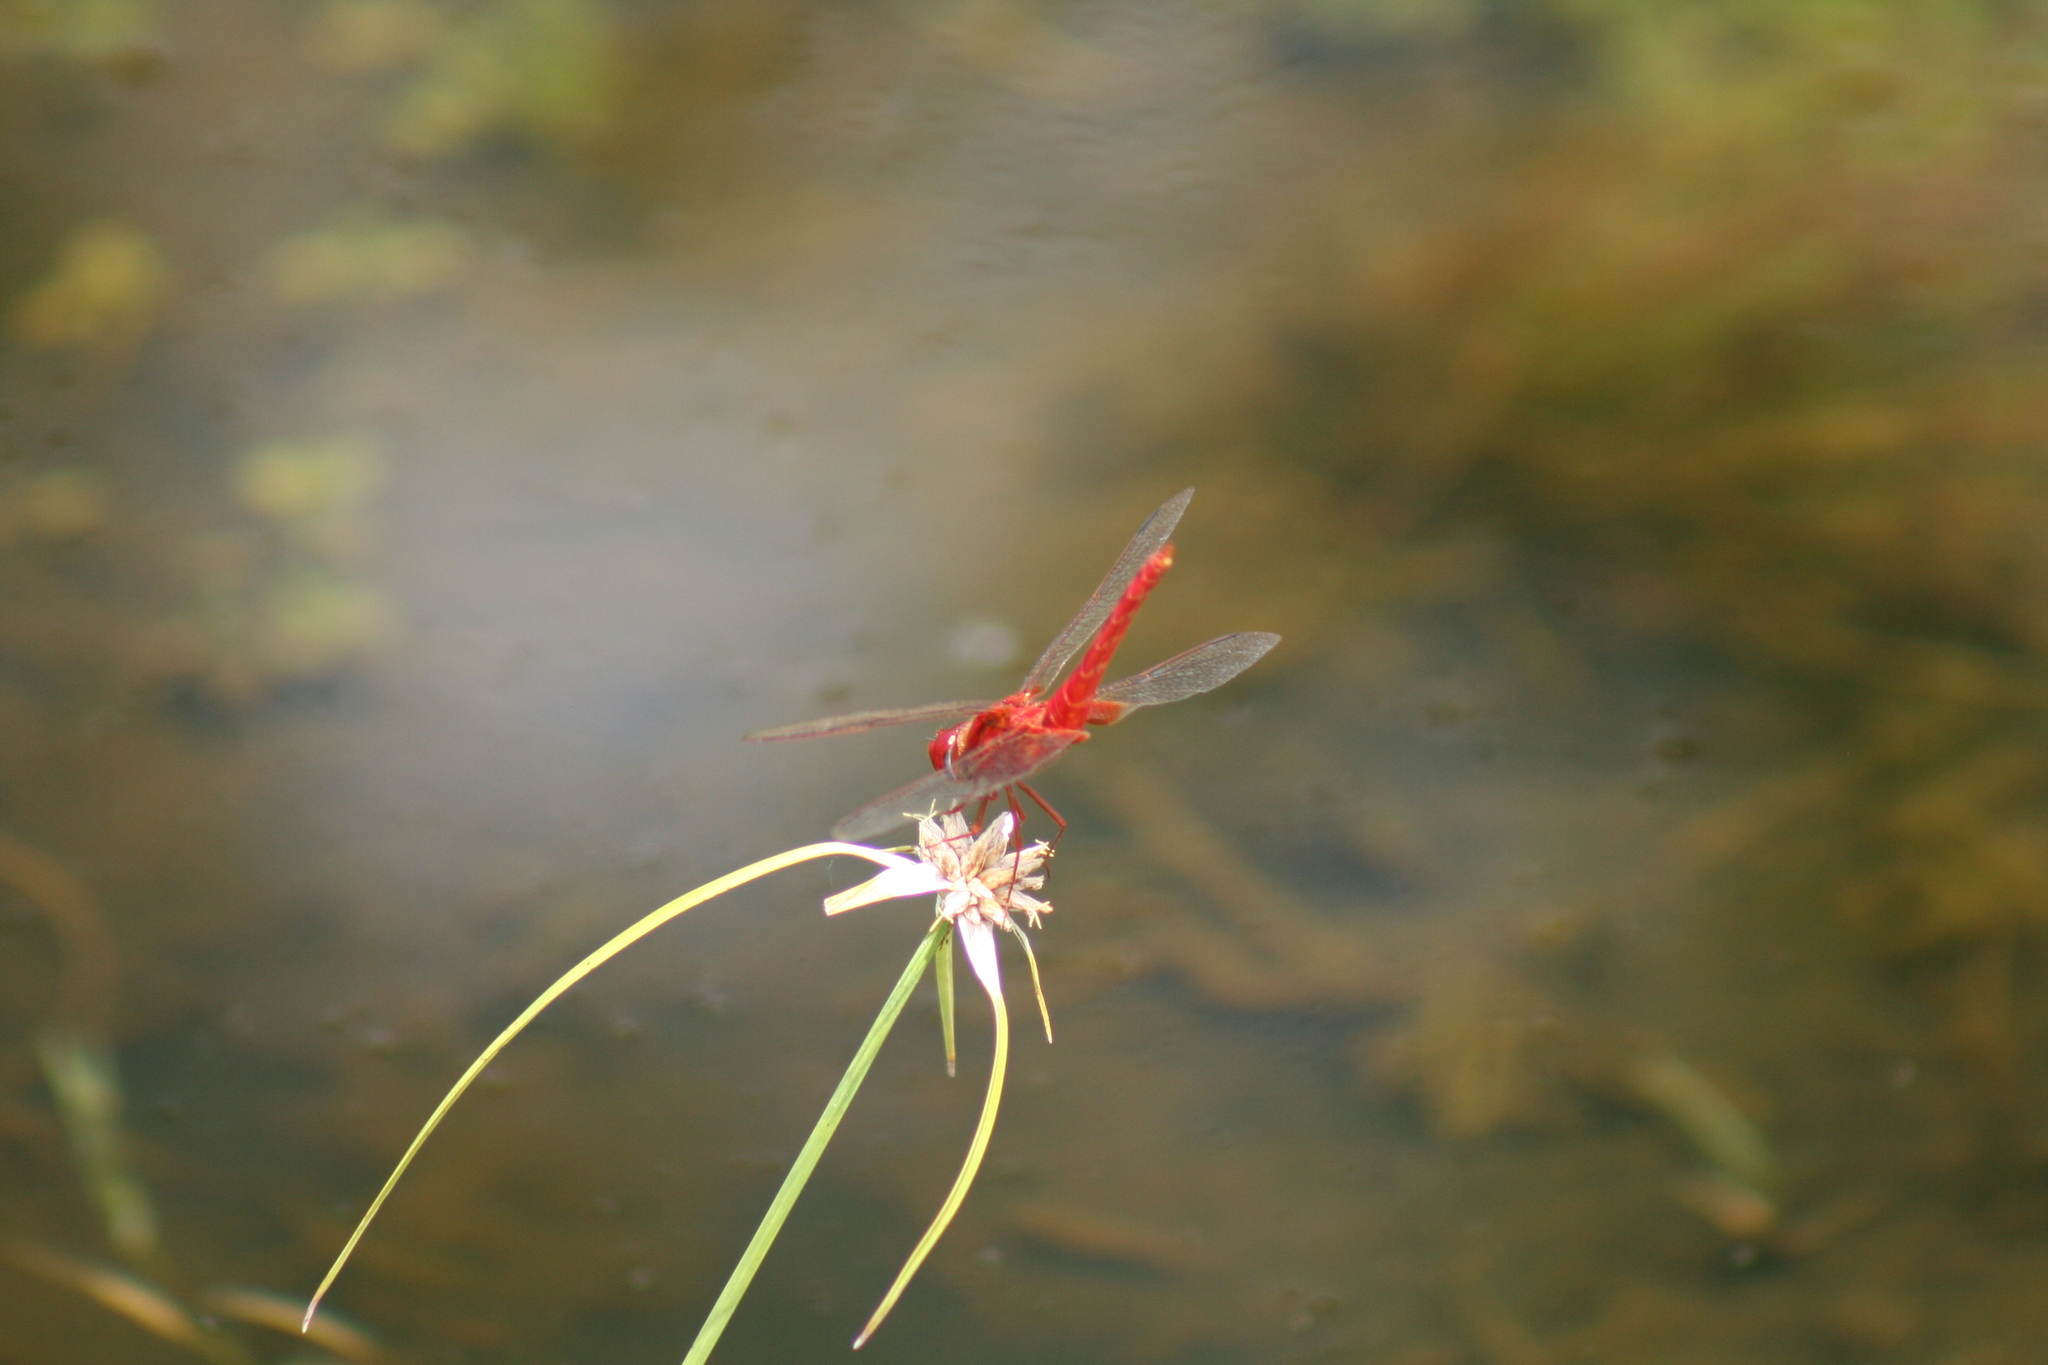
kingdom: Animalia
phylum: Arthropoda
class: Insecta
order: Odonata
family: Libellulidae
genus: Crocothemis
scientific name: Crocothemis servilia
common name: Scarlet skimmer
